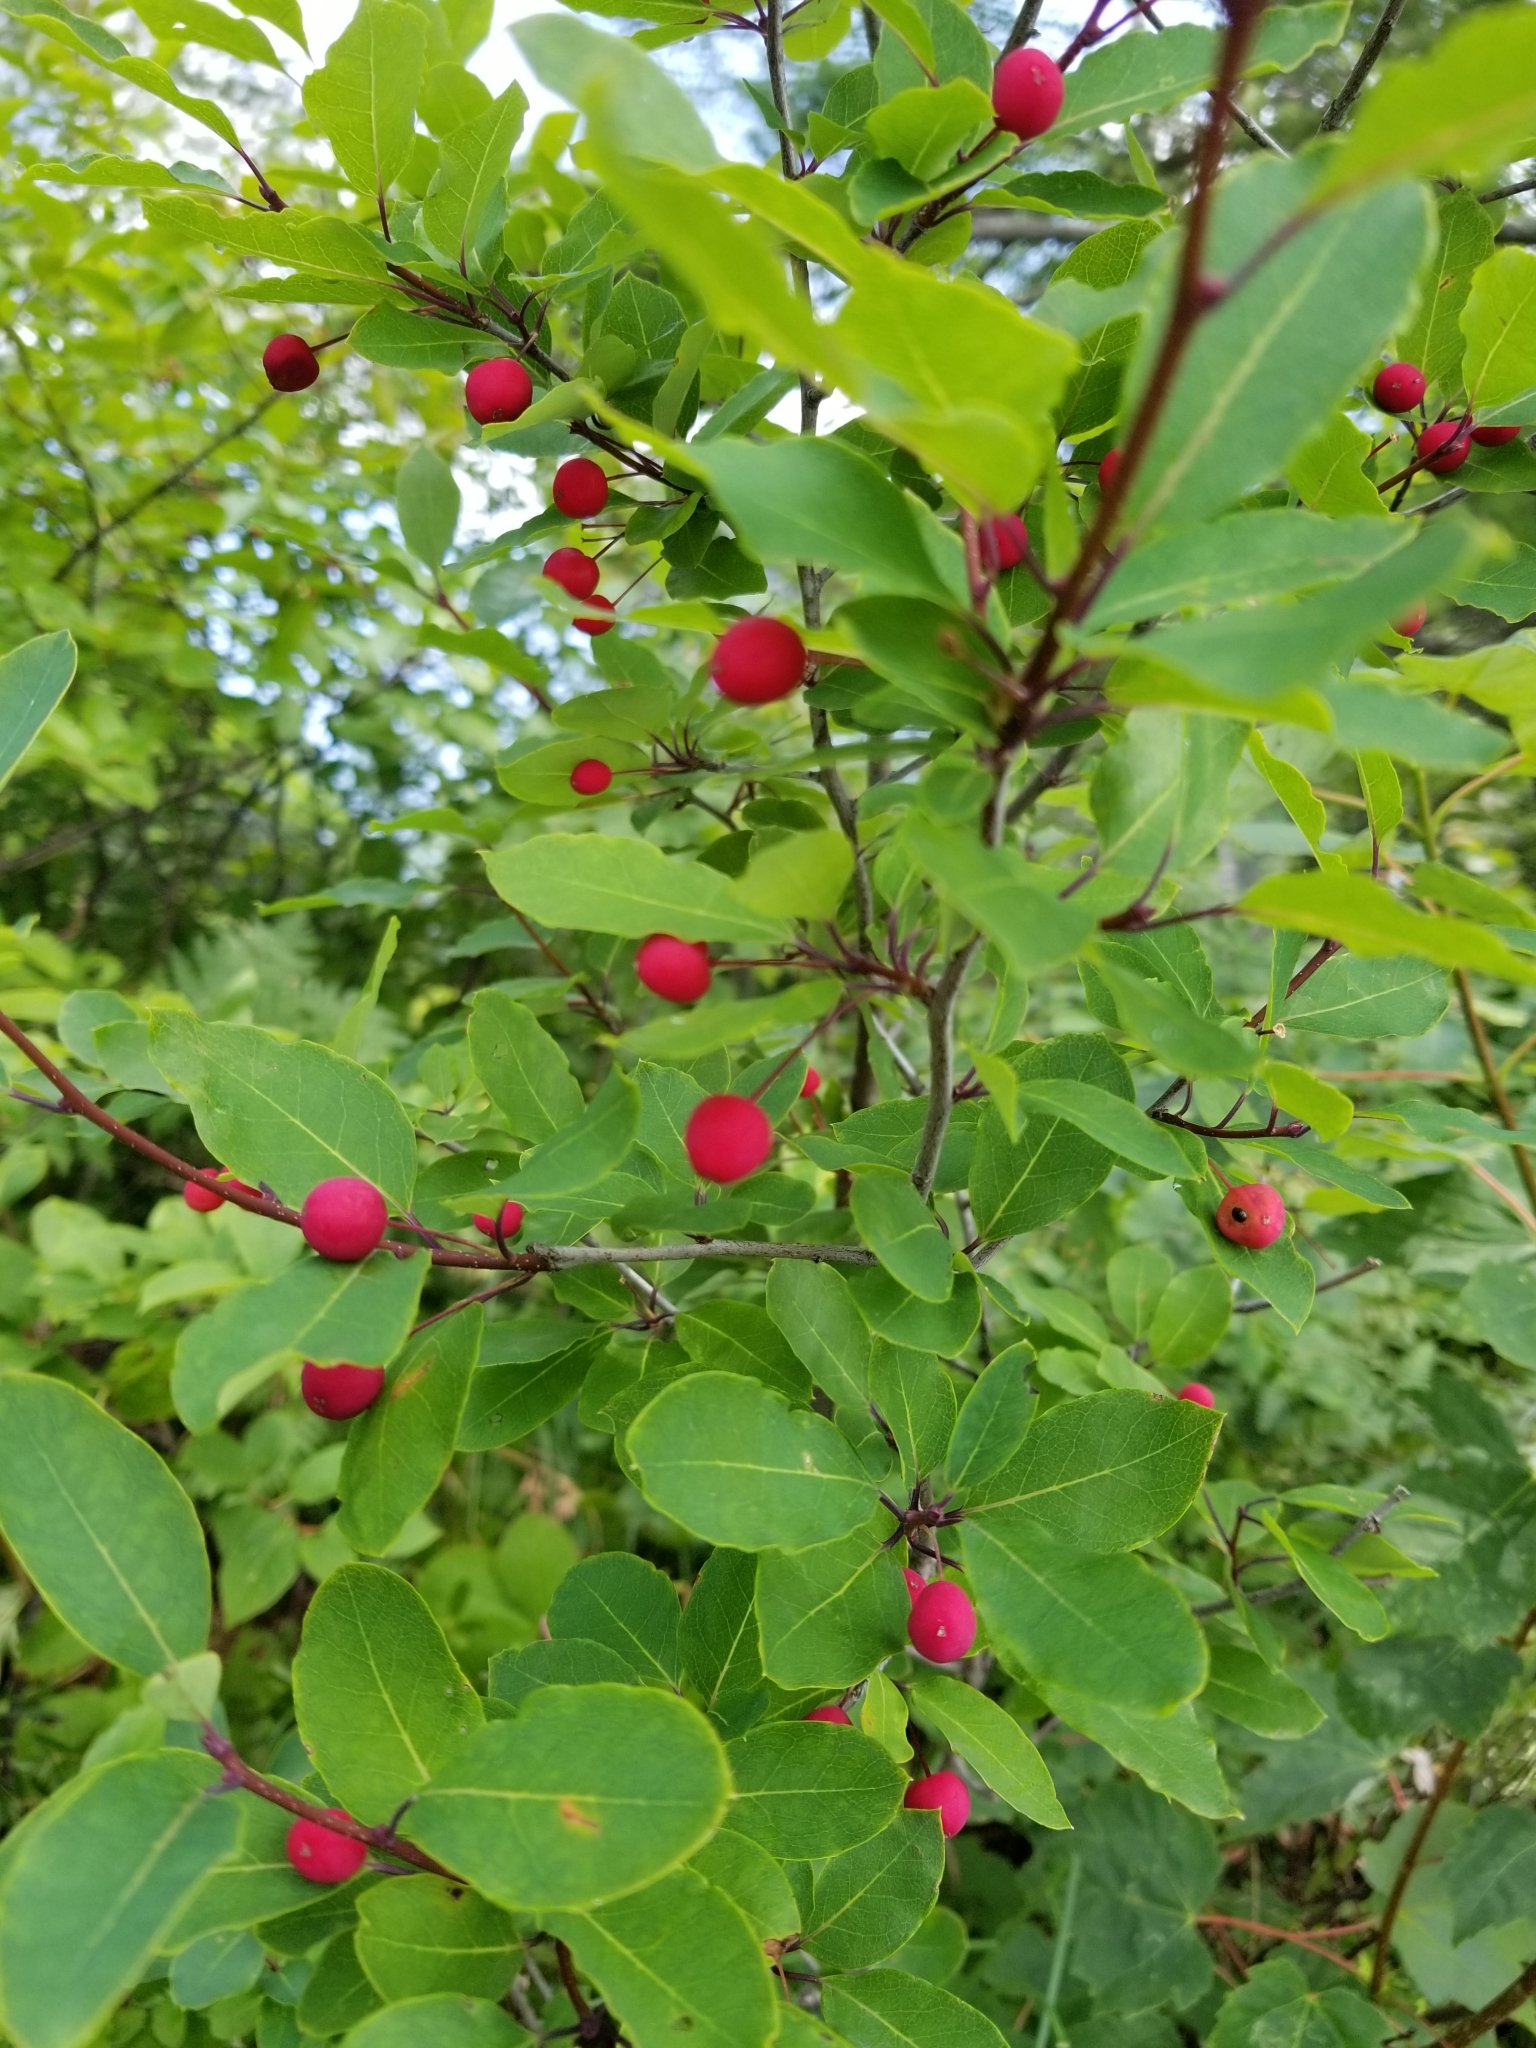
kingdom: Plantae
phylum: Tracheophyta
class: Magnoliopsida
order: Aquifoliales
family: Aquifoliaceae
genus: Ilex
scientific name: Ilex mucronata
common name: Catberry
